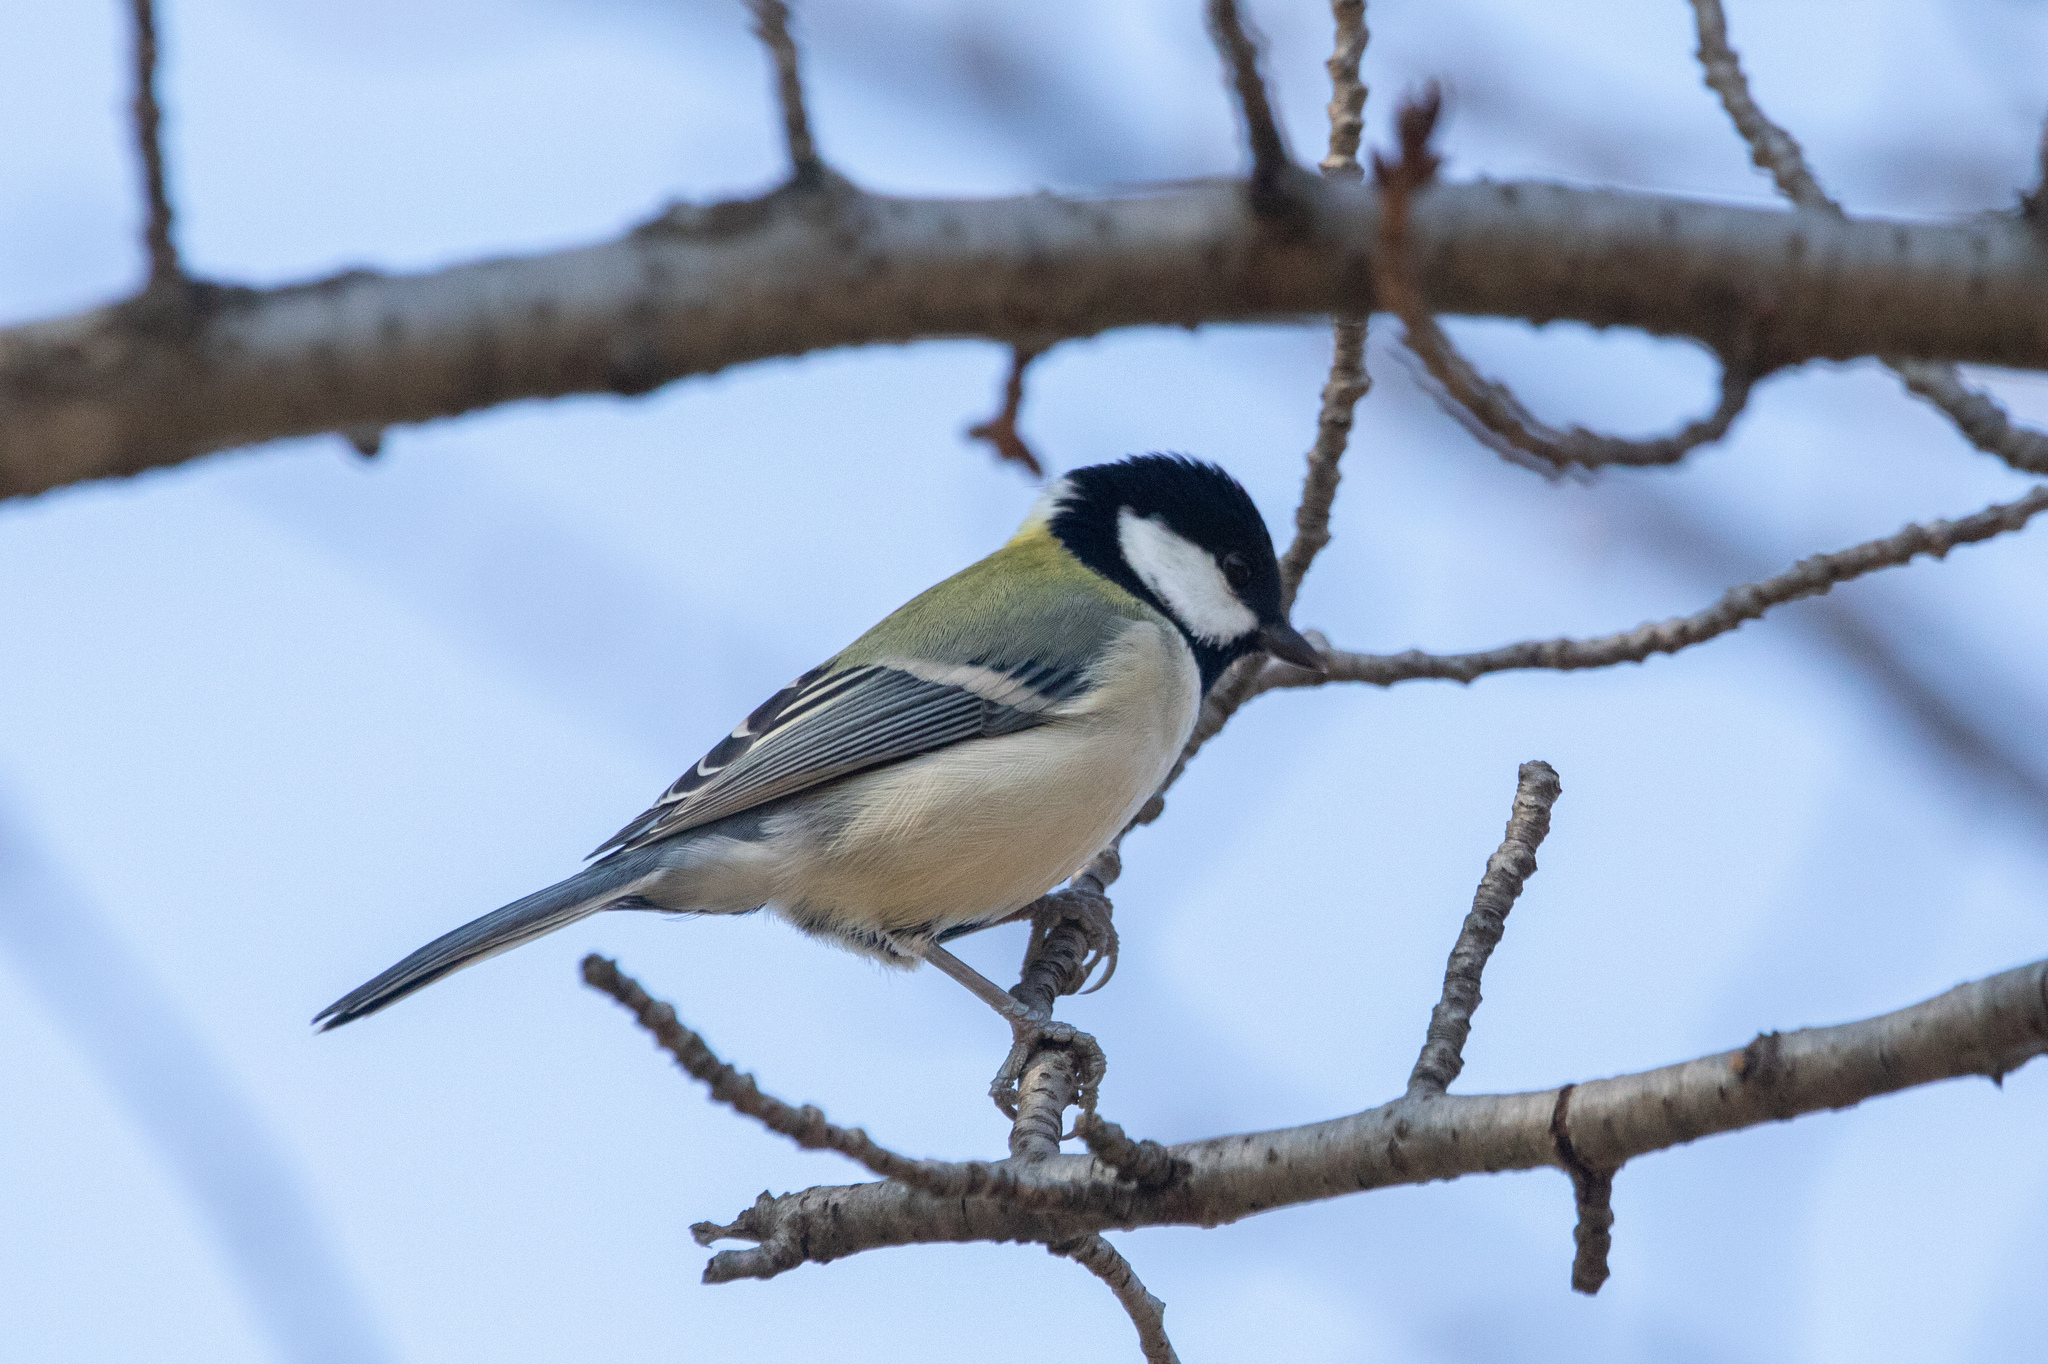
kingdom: Animalia
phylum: Chordata
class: Aves
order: Passeriformes
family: Paridae
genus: Parus
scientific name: Parus minor
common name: Japanese tit
